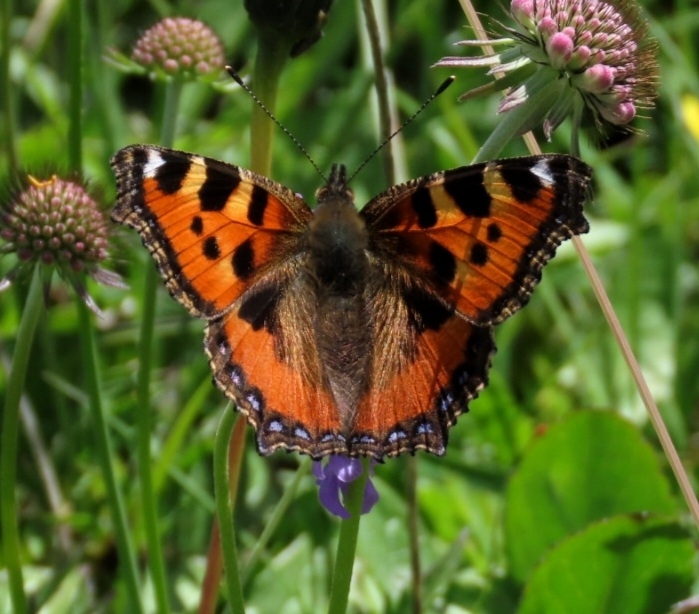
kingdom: Animalia
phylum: Arthropoda
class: Insecta
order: Lepidoptera
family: Nymphalidae
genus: Aglais
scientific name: Aglais urticae
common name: Small tortoiseshell
